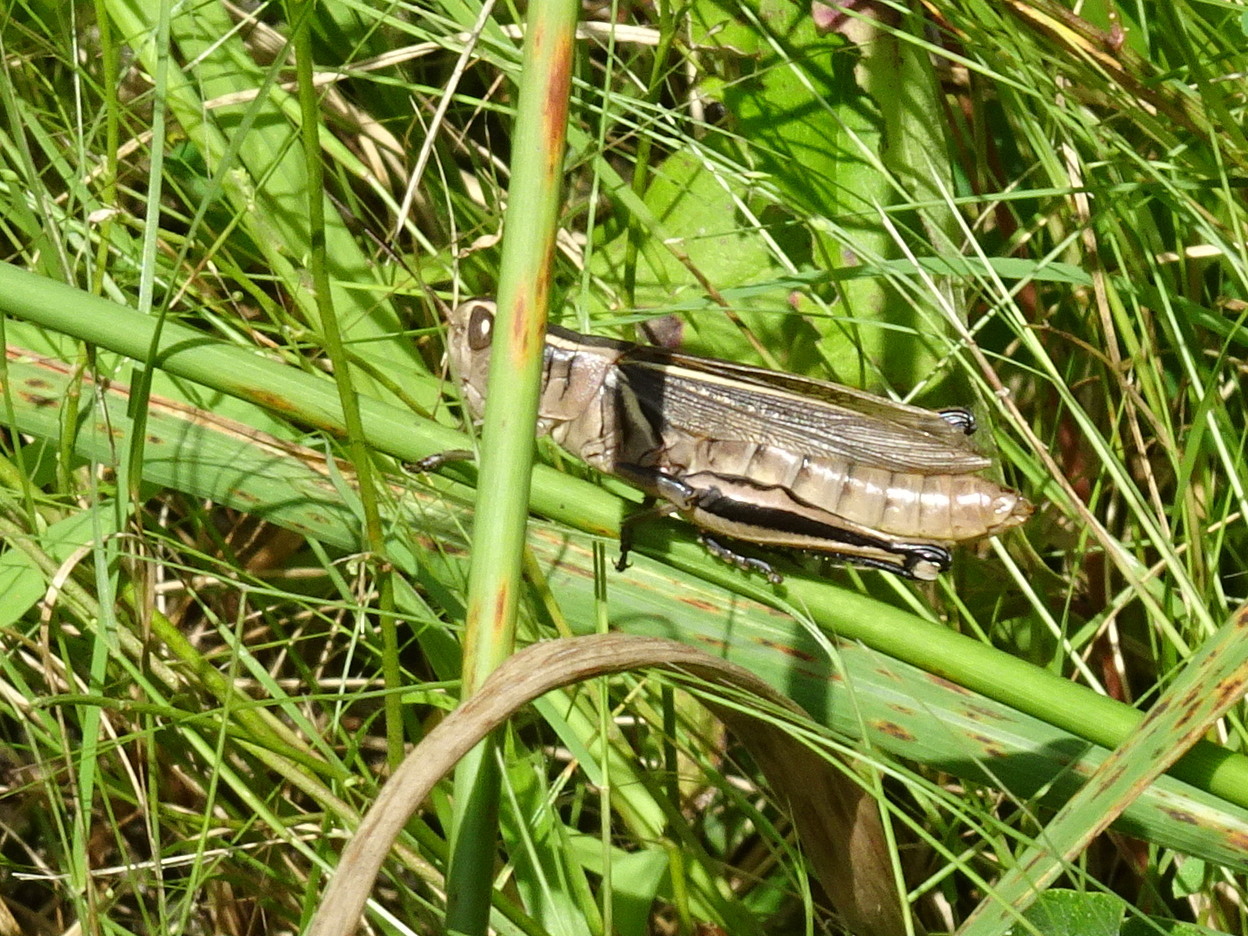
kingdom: Animalia
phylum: Arthropoda
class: Insecta
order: Orthoptera
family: Acrididae
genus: Melanoplus
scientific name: Melanoplus bivittatus
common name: Two-striped grasshopper
